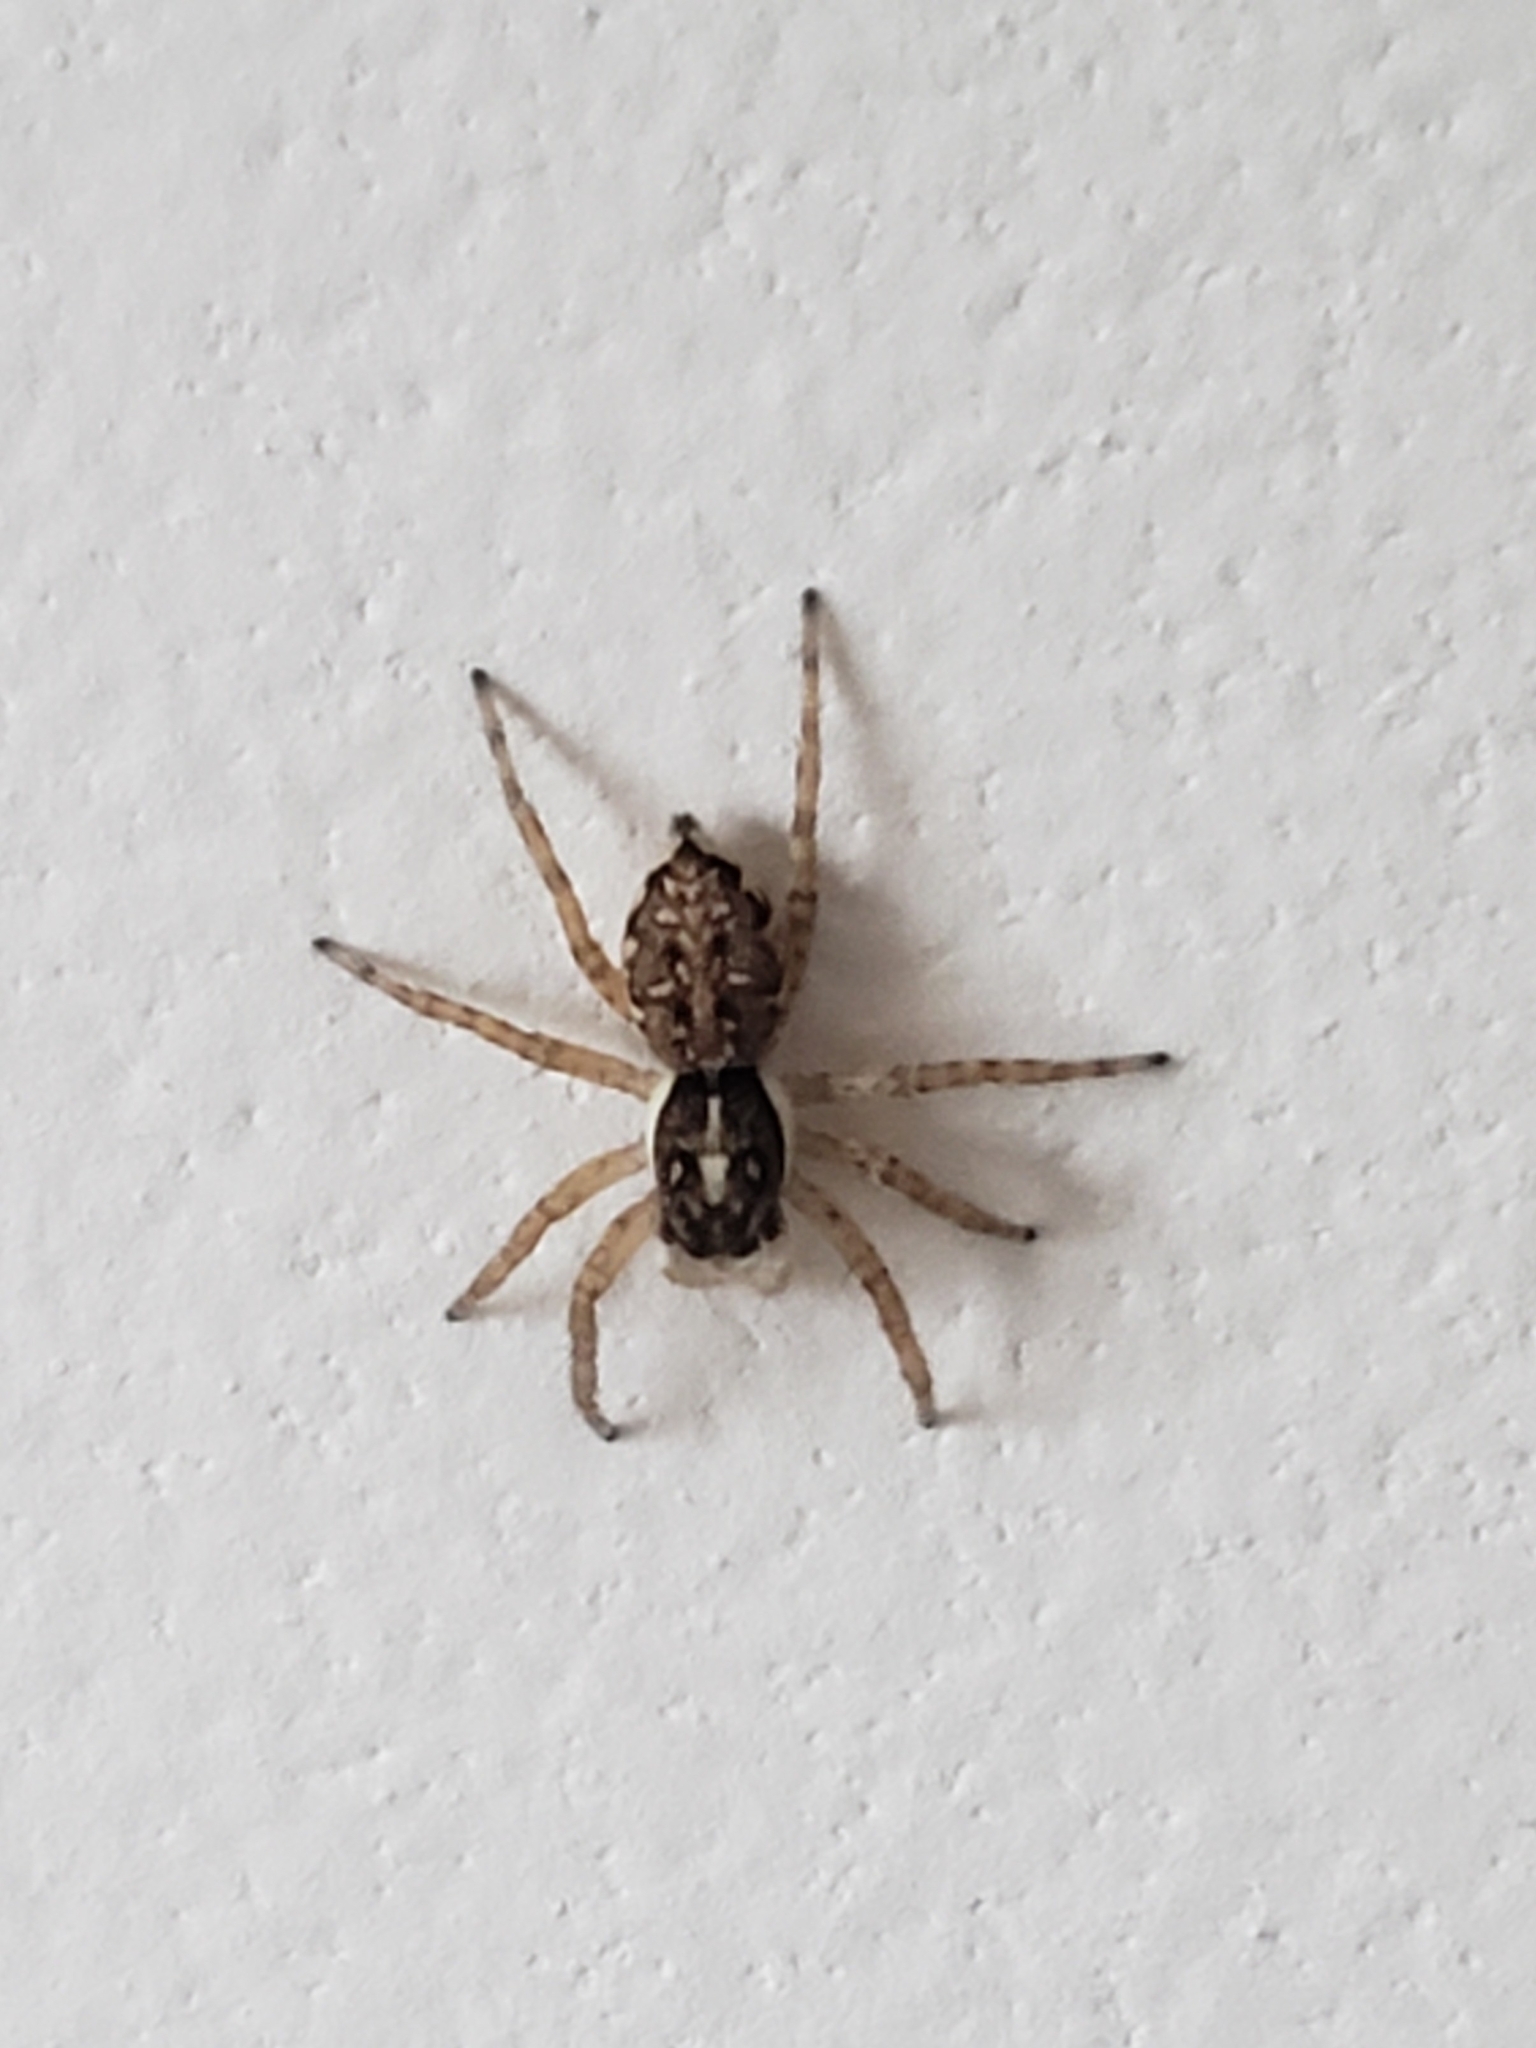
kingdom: Animalia
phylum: Arthropoda
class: Arachnida
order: Araneae
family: Salticidae
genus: Menemerus
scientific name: Menemerus semilimbatus
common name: Jumping spider
